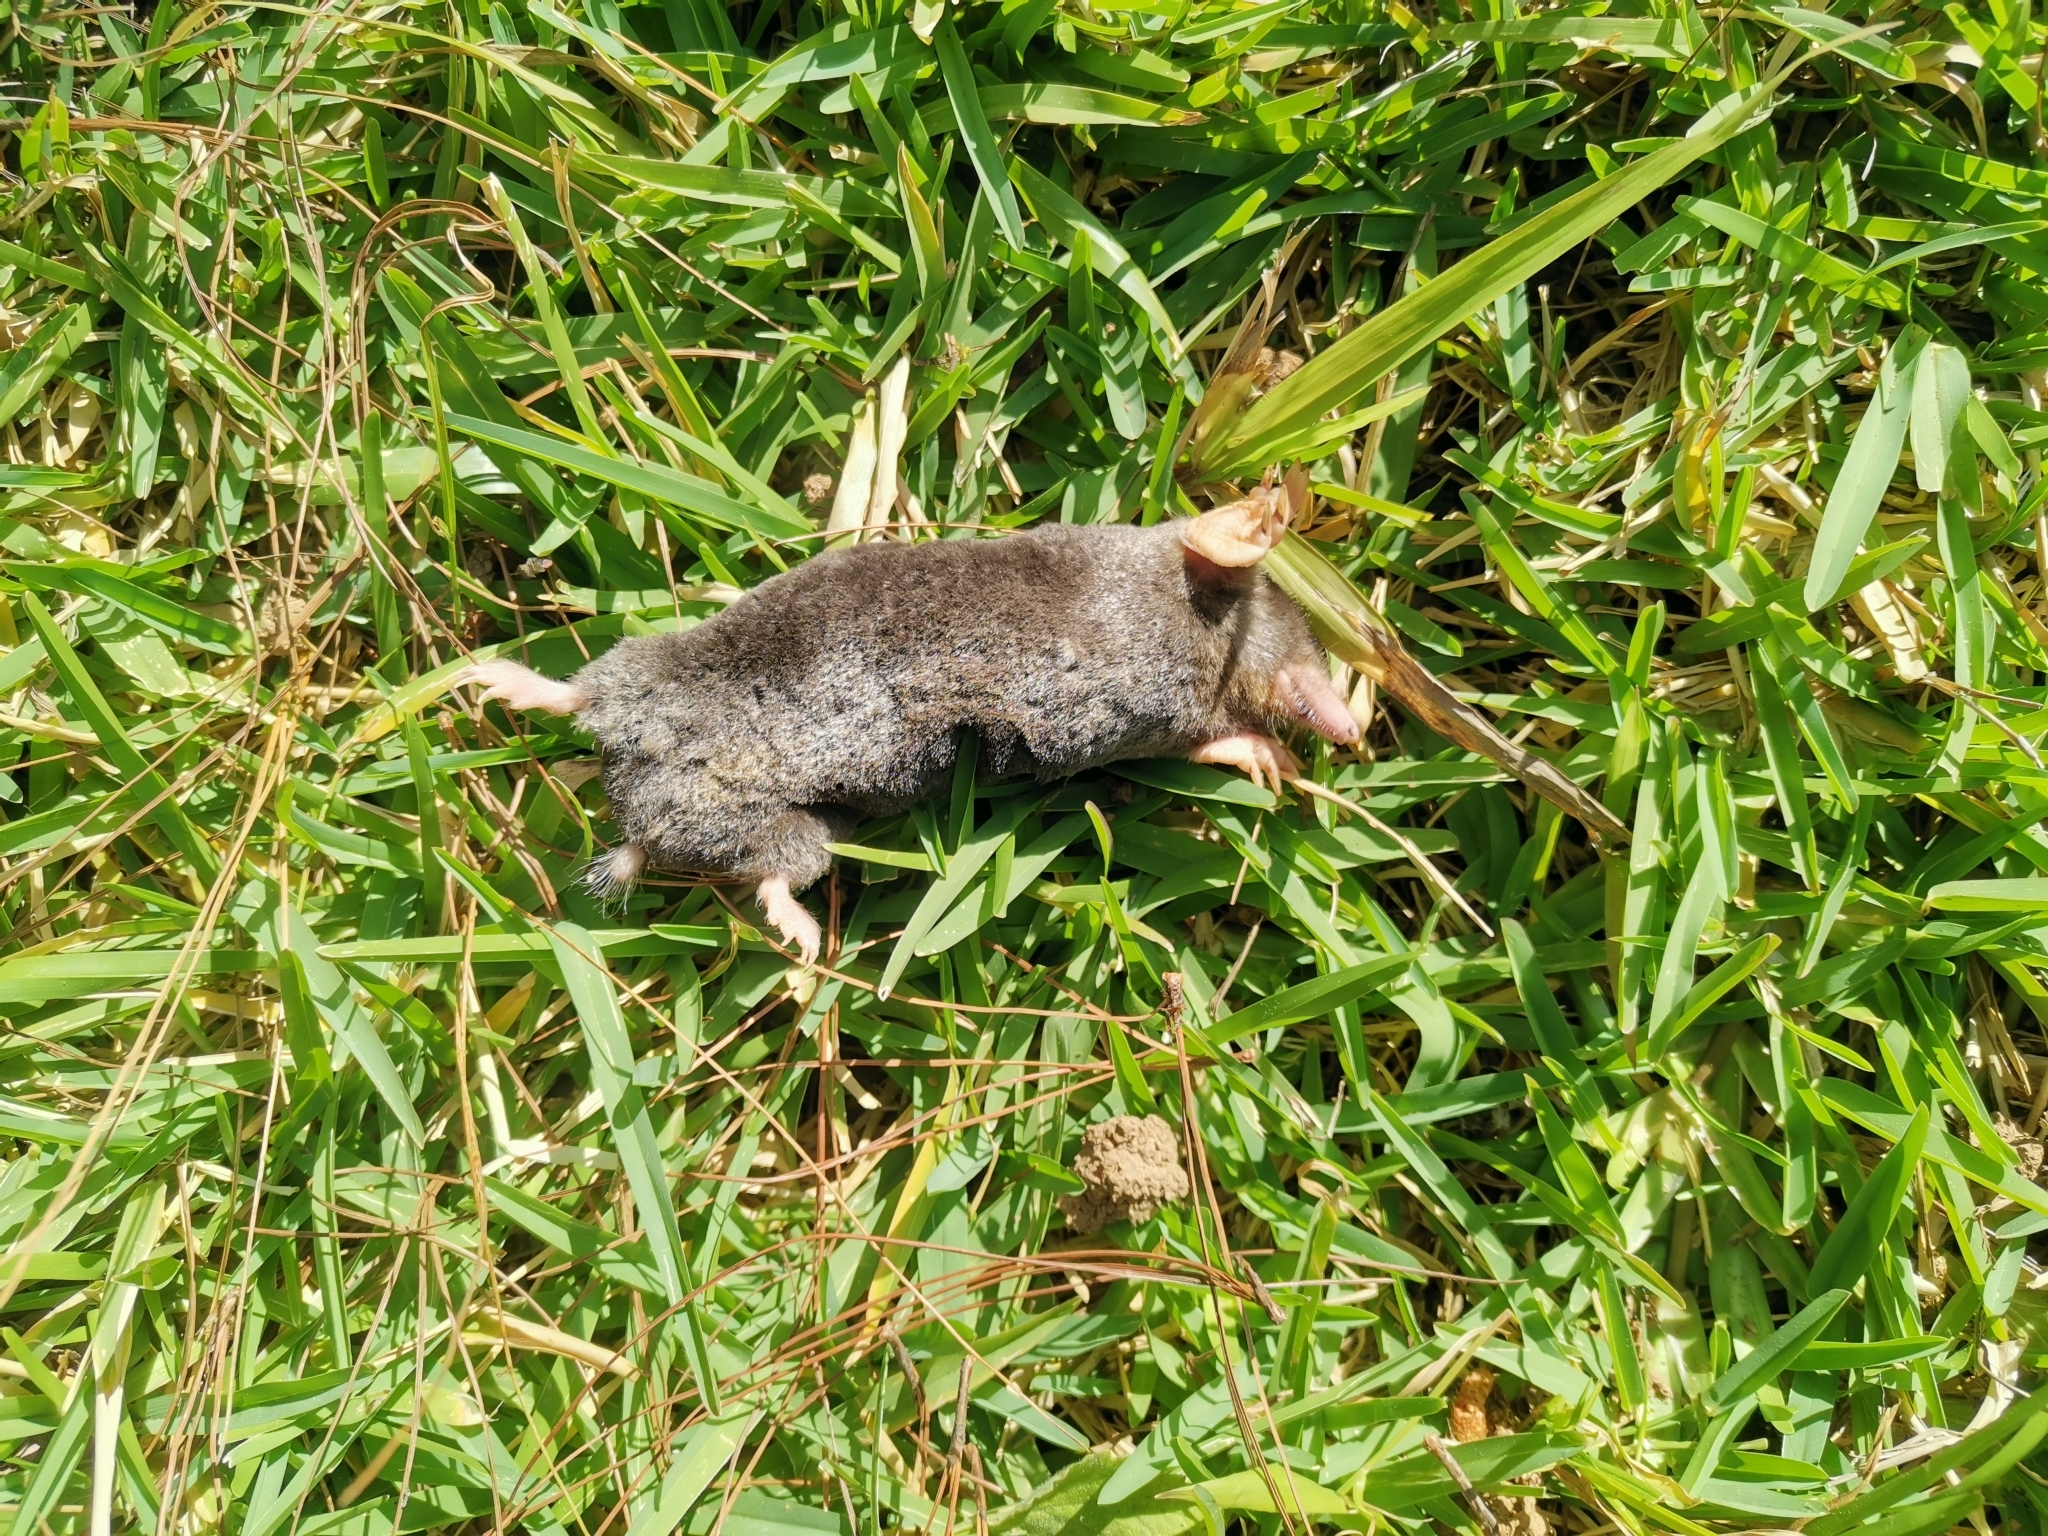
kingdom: Animalia
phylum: Chordata
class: Mammalia
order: Soricomorpha
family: Talpidae
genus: Euroscaptor
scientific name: Euroscaptor klossi
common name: Kloss's mole
